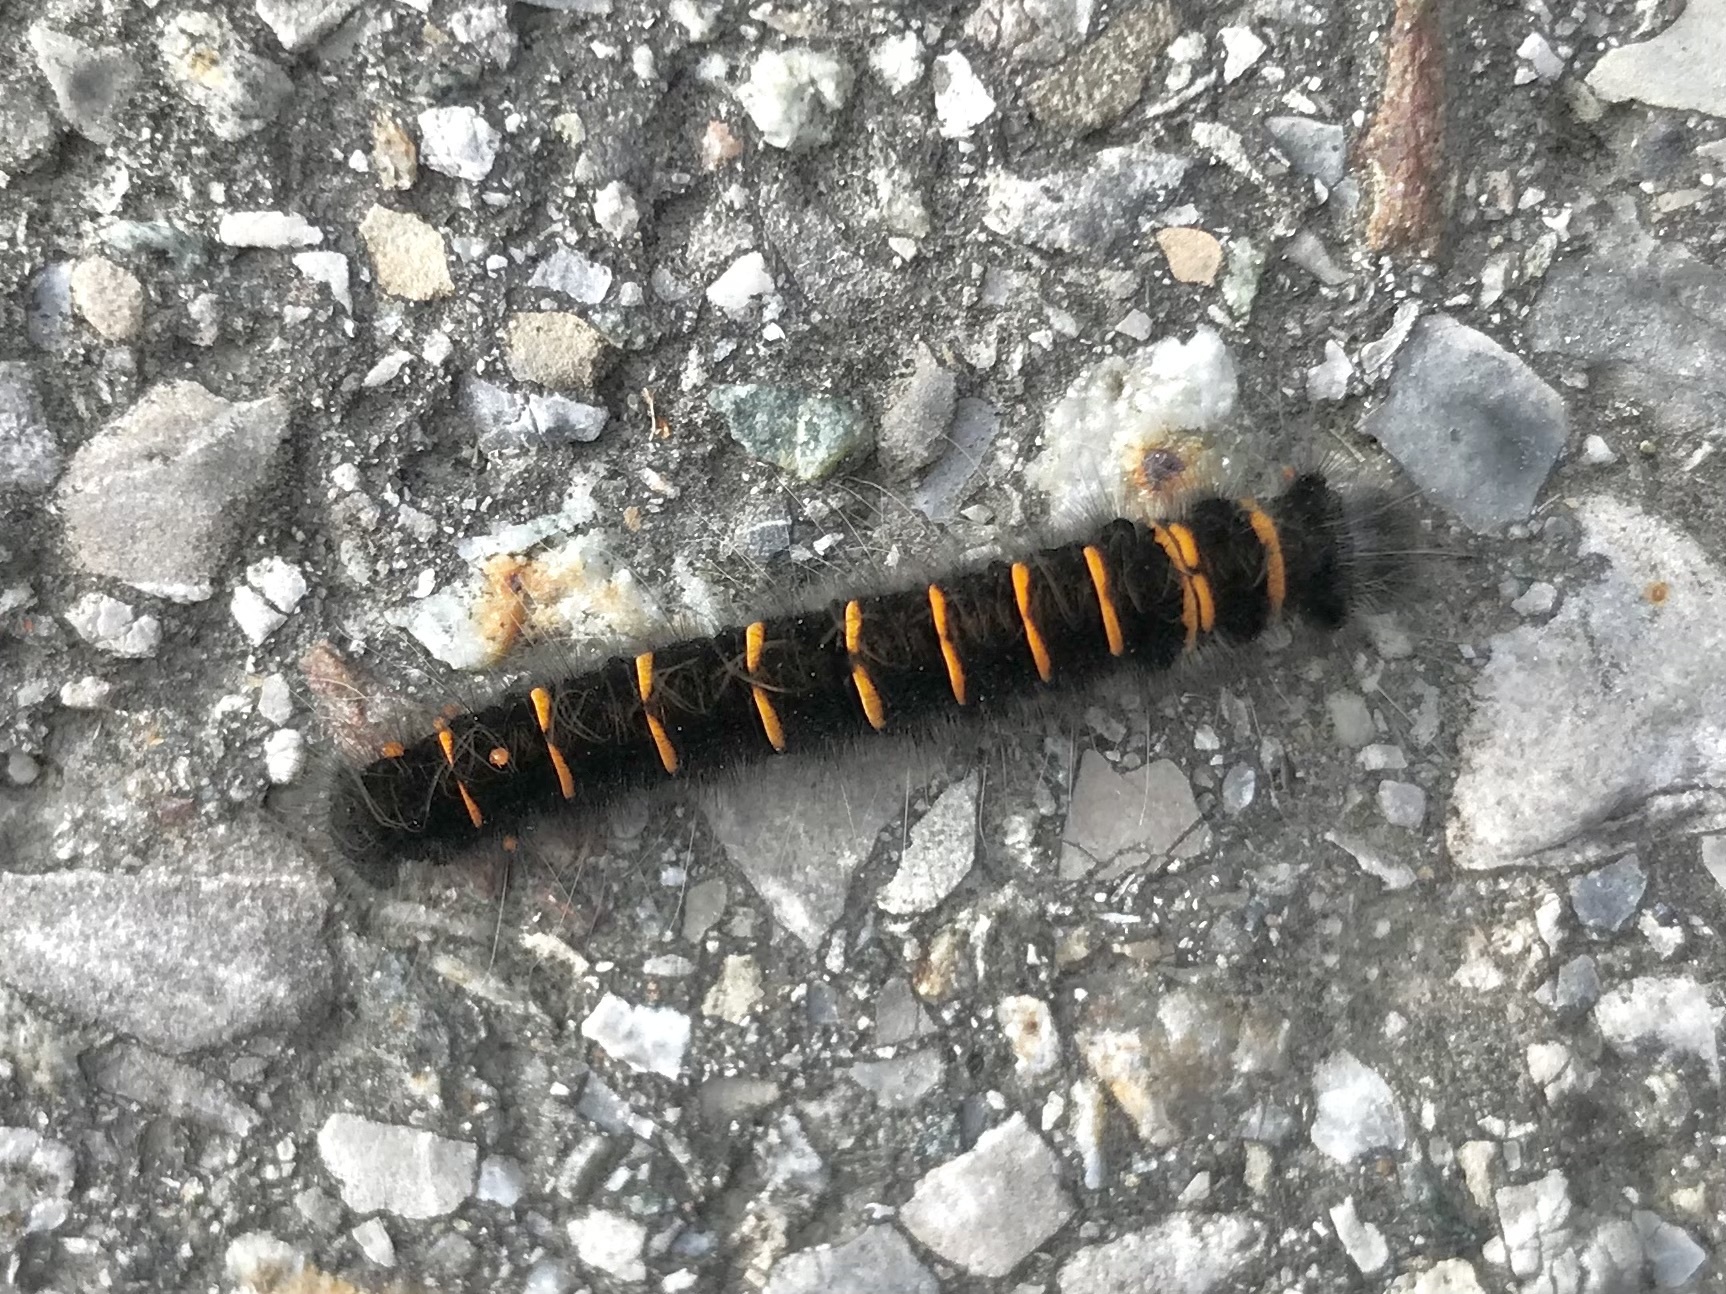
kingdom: Animalia
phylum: Arthropoda
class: Insecta
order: Lepidoptera
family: Lasiocampidae
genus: Macrothylacia
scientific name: Macrothylacia rubi
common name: Fox moth
